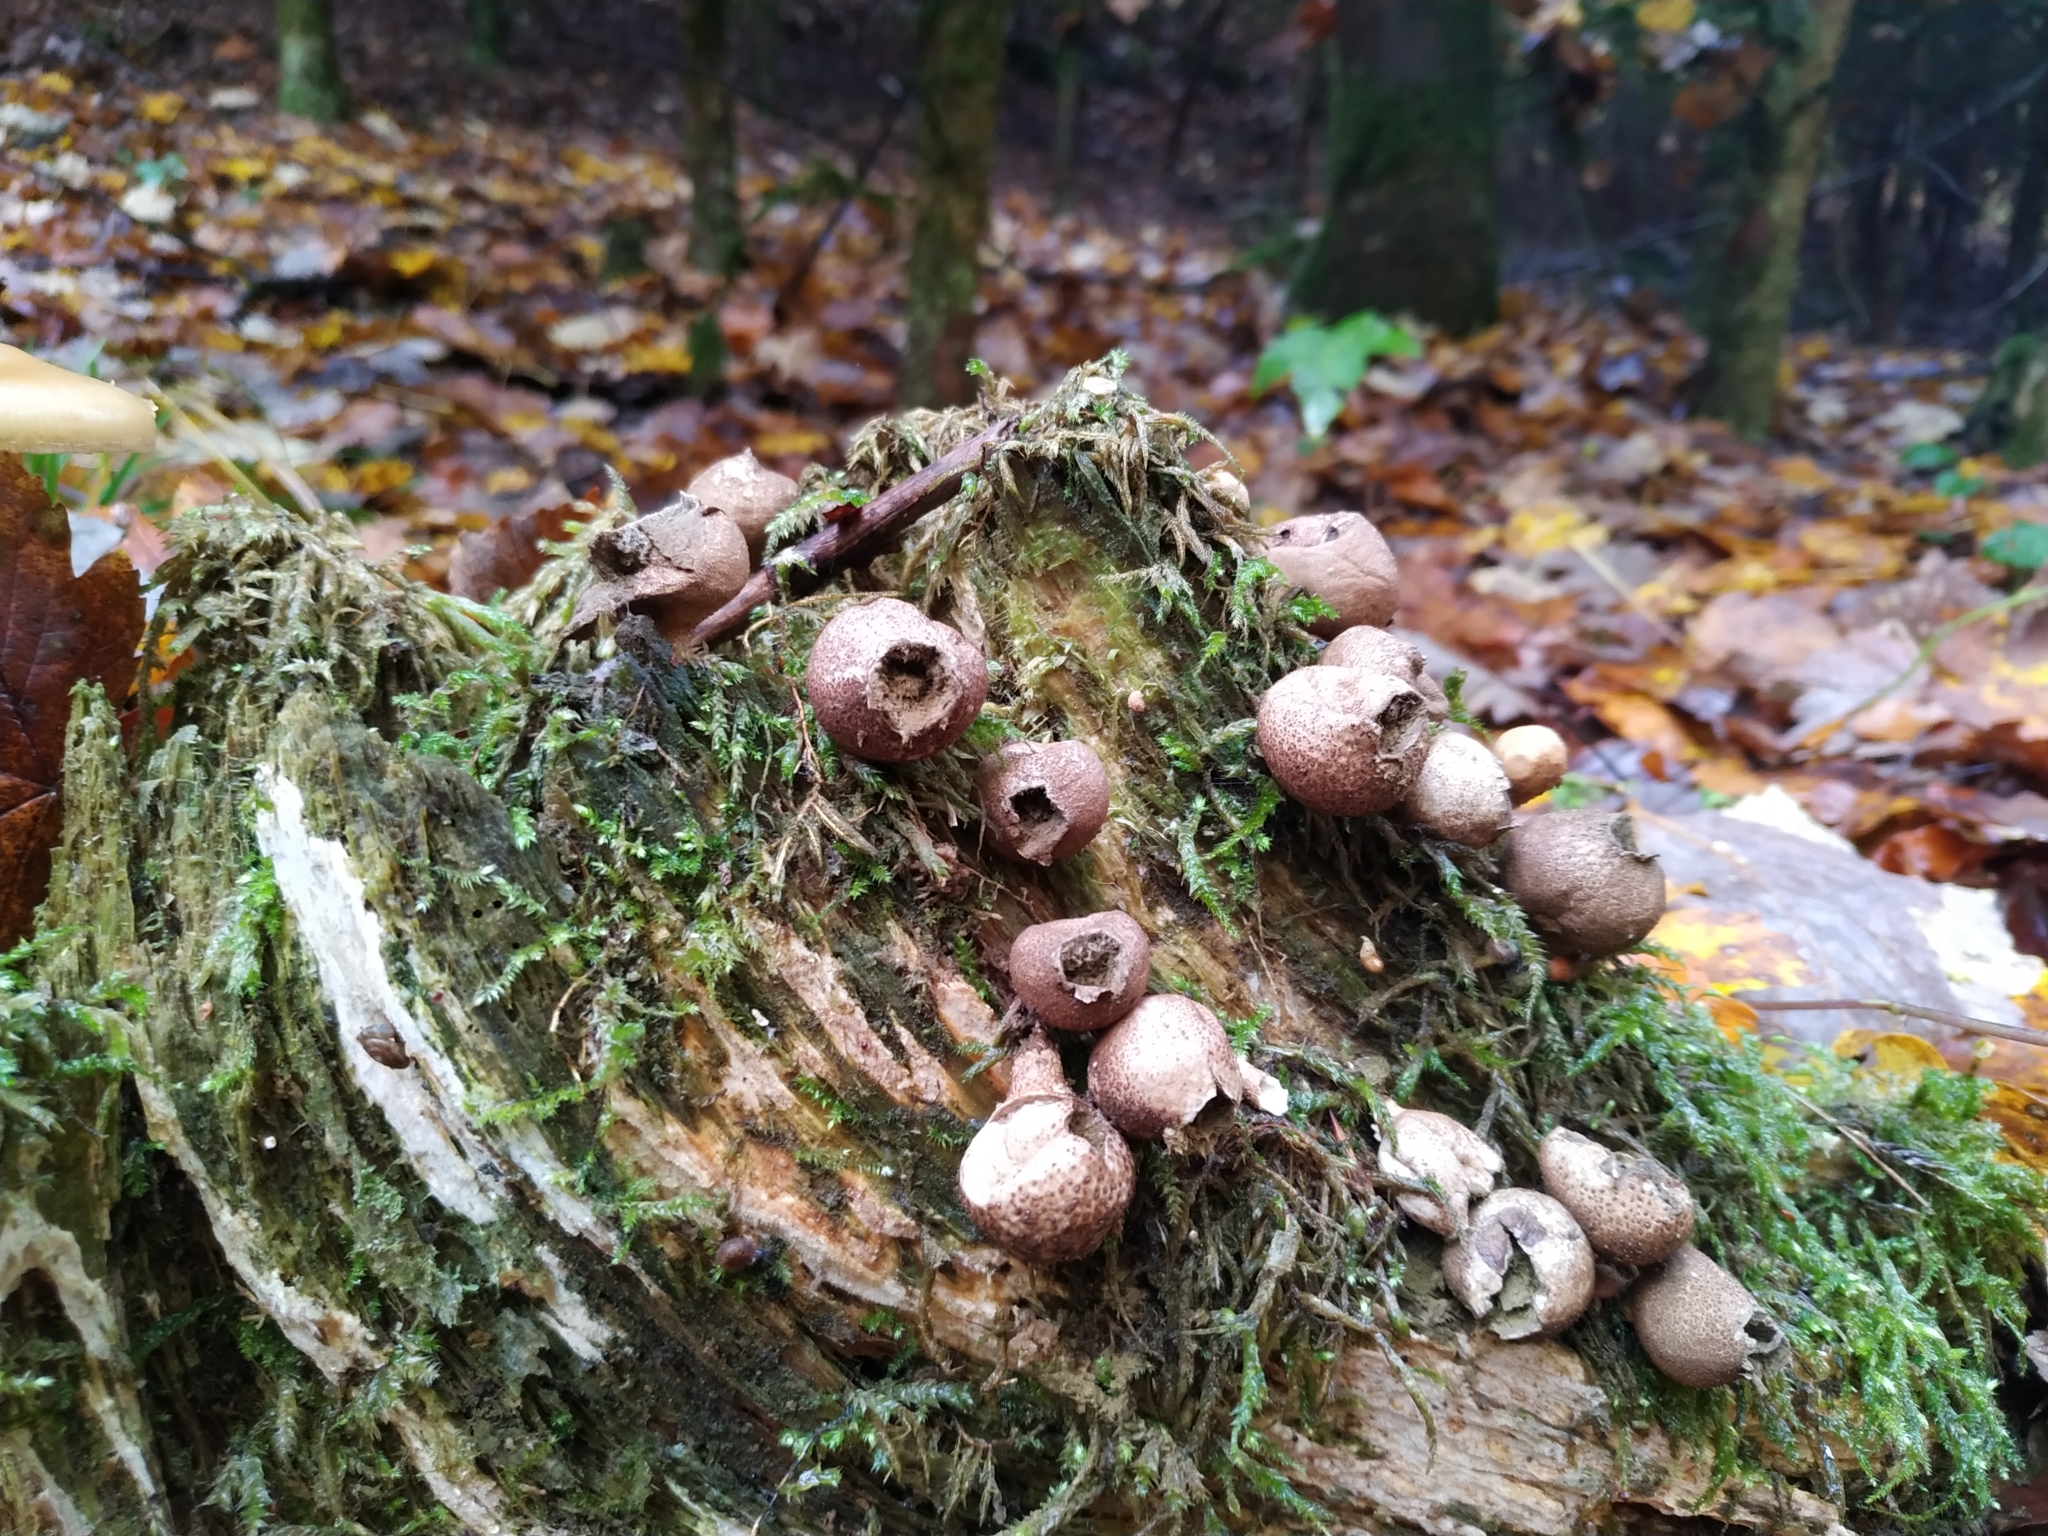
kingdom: Fungi
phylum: Basidiomycota
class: Agaricomycetes
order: Agaricales
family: Lycoperdaceae
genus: Apioperdon
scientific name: Apioperdon pyriforme
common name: Pear-shaped puffball
